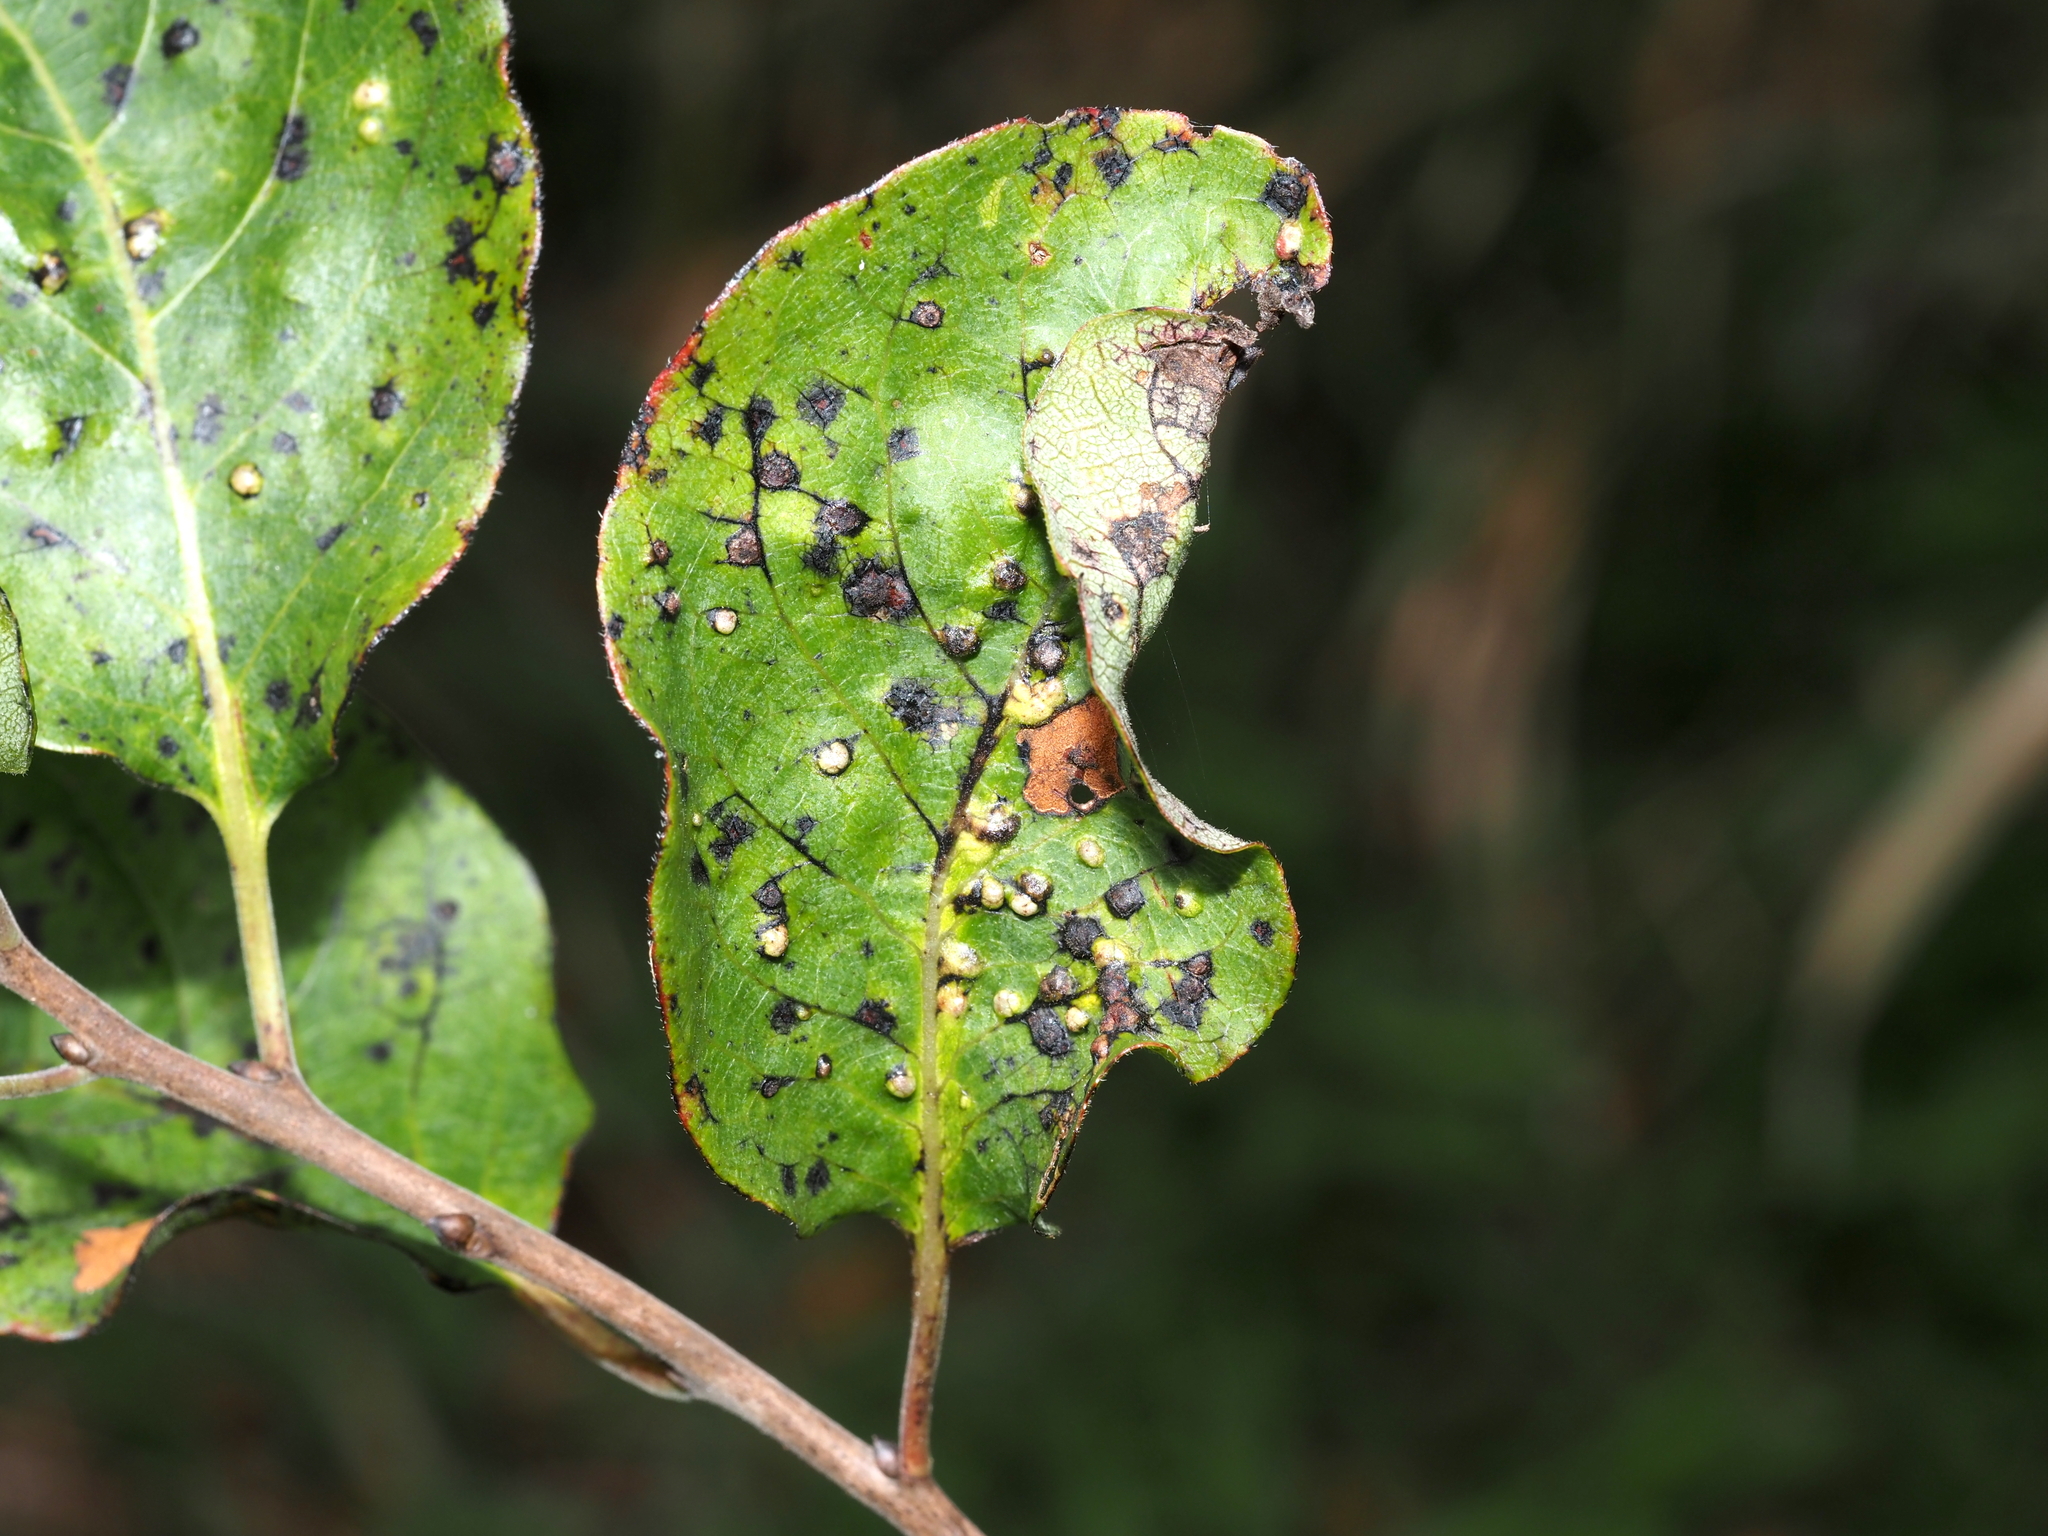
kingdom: Animalia
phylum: Arthropoda
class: Arachnida
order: Trombidiformes
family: Eriophyidae
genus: Aceria
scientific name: Aceria
